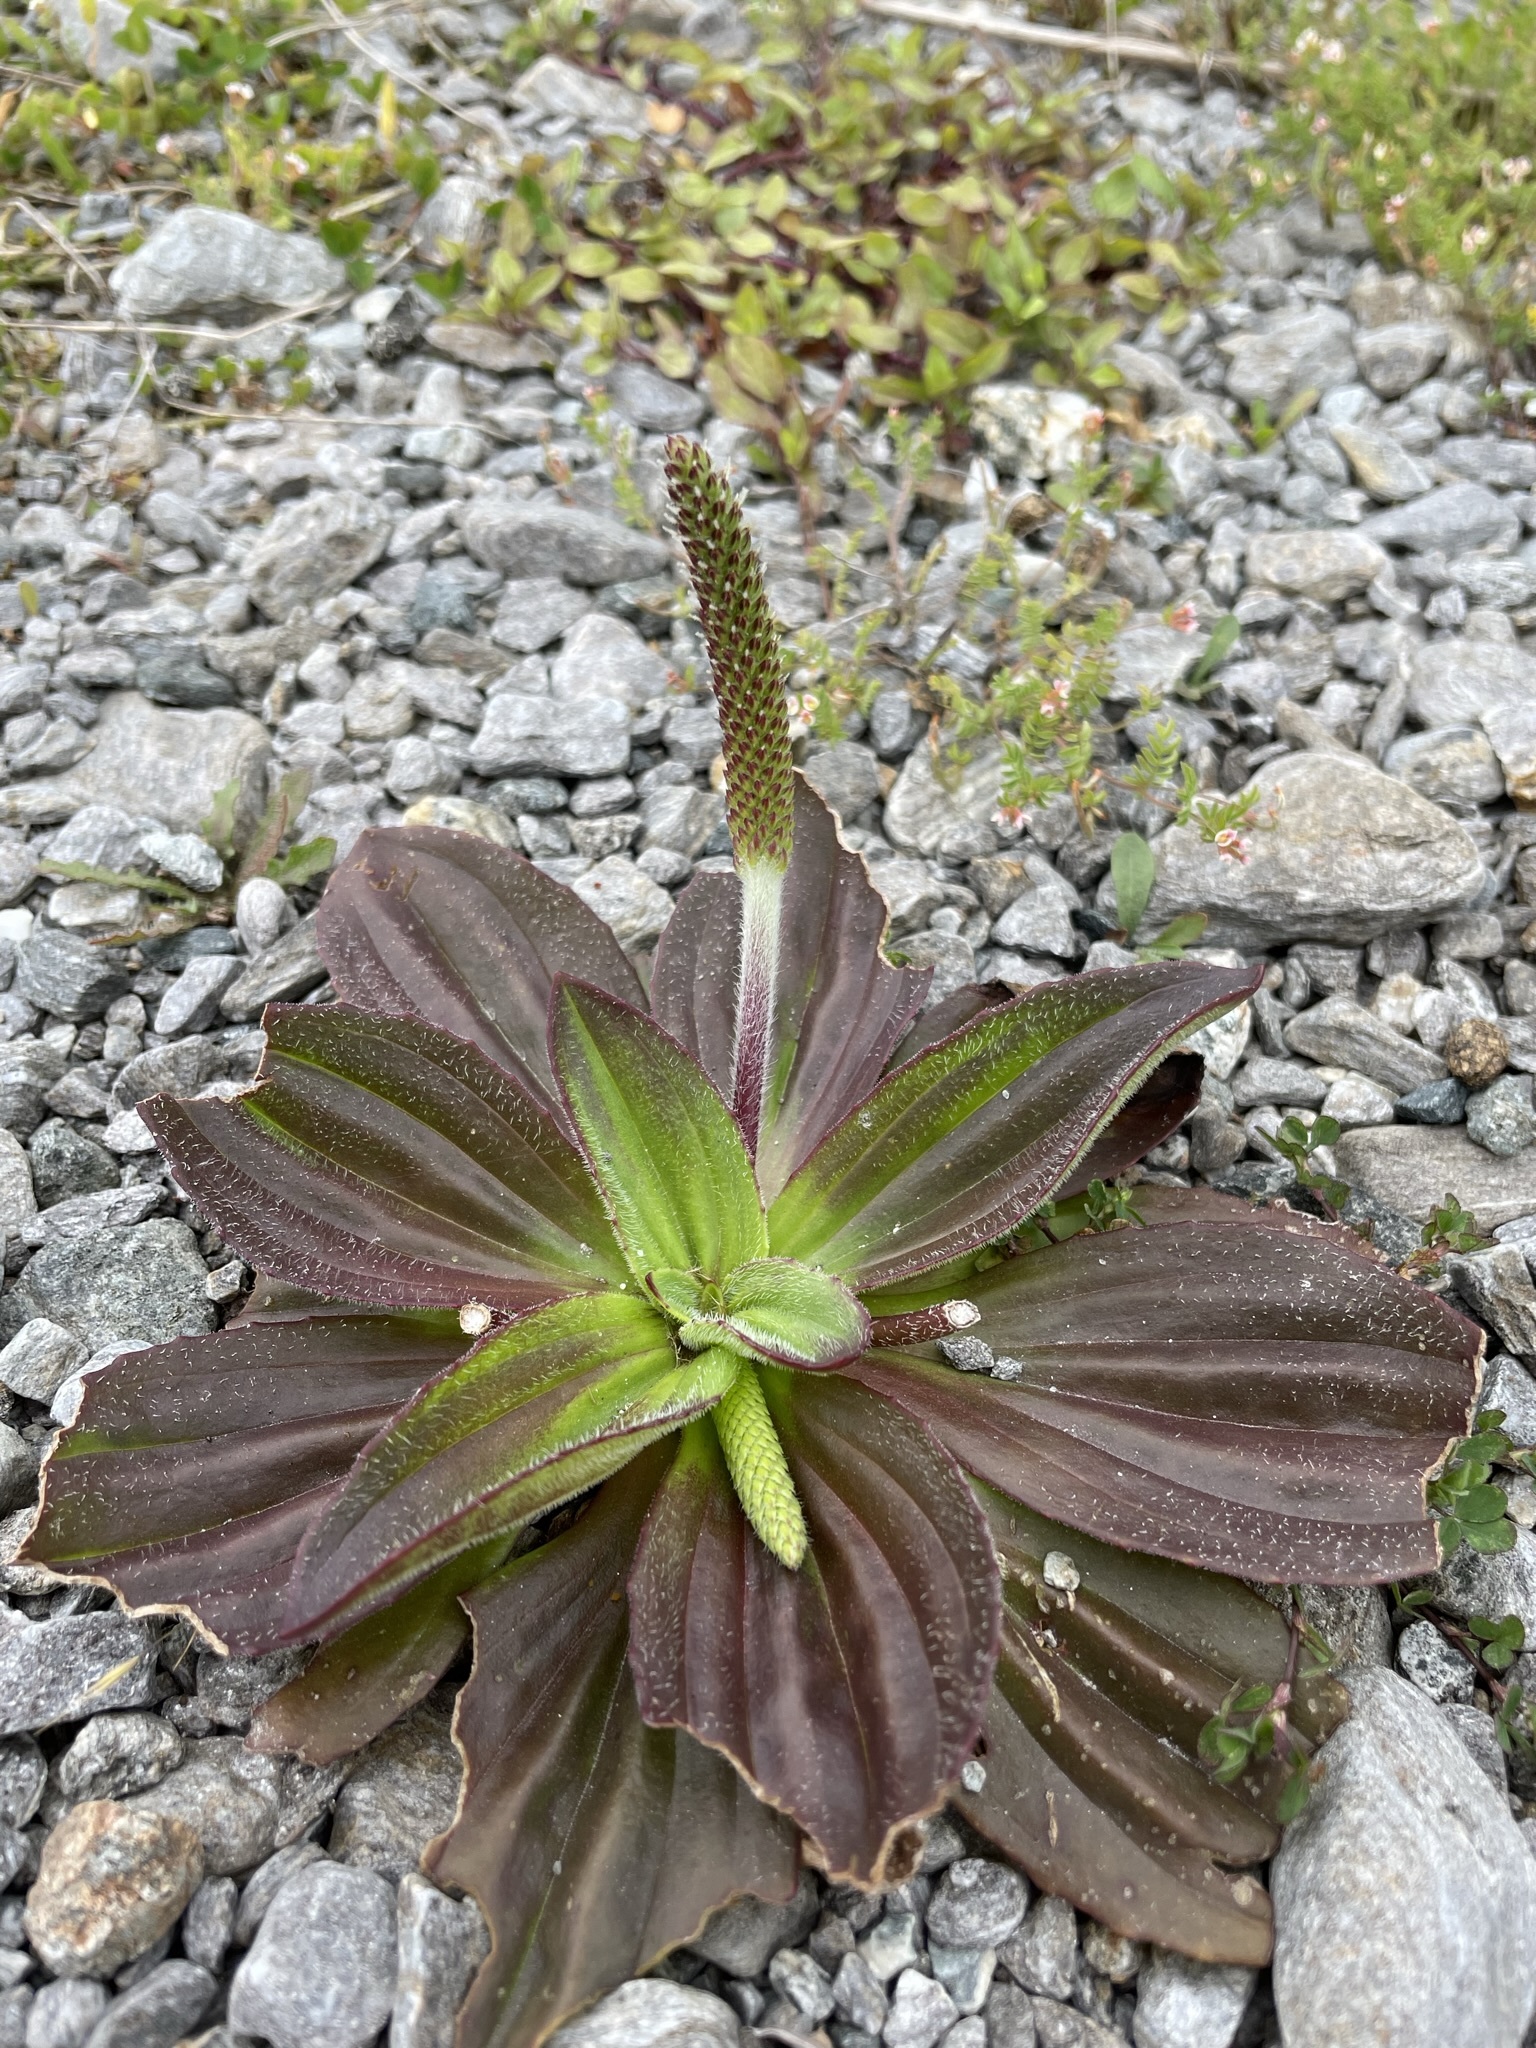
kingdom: Plantae
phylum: Tracheophyta
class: Magnoliopsida
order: Lamiales
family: Plantaginaceae
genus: Plantago
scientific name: Plantago australis
